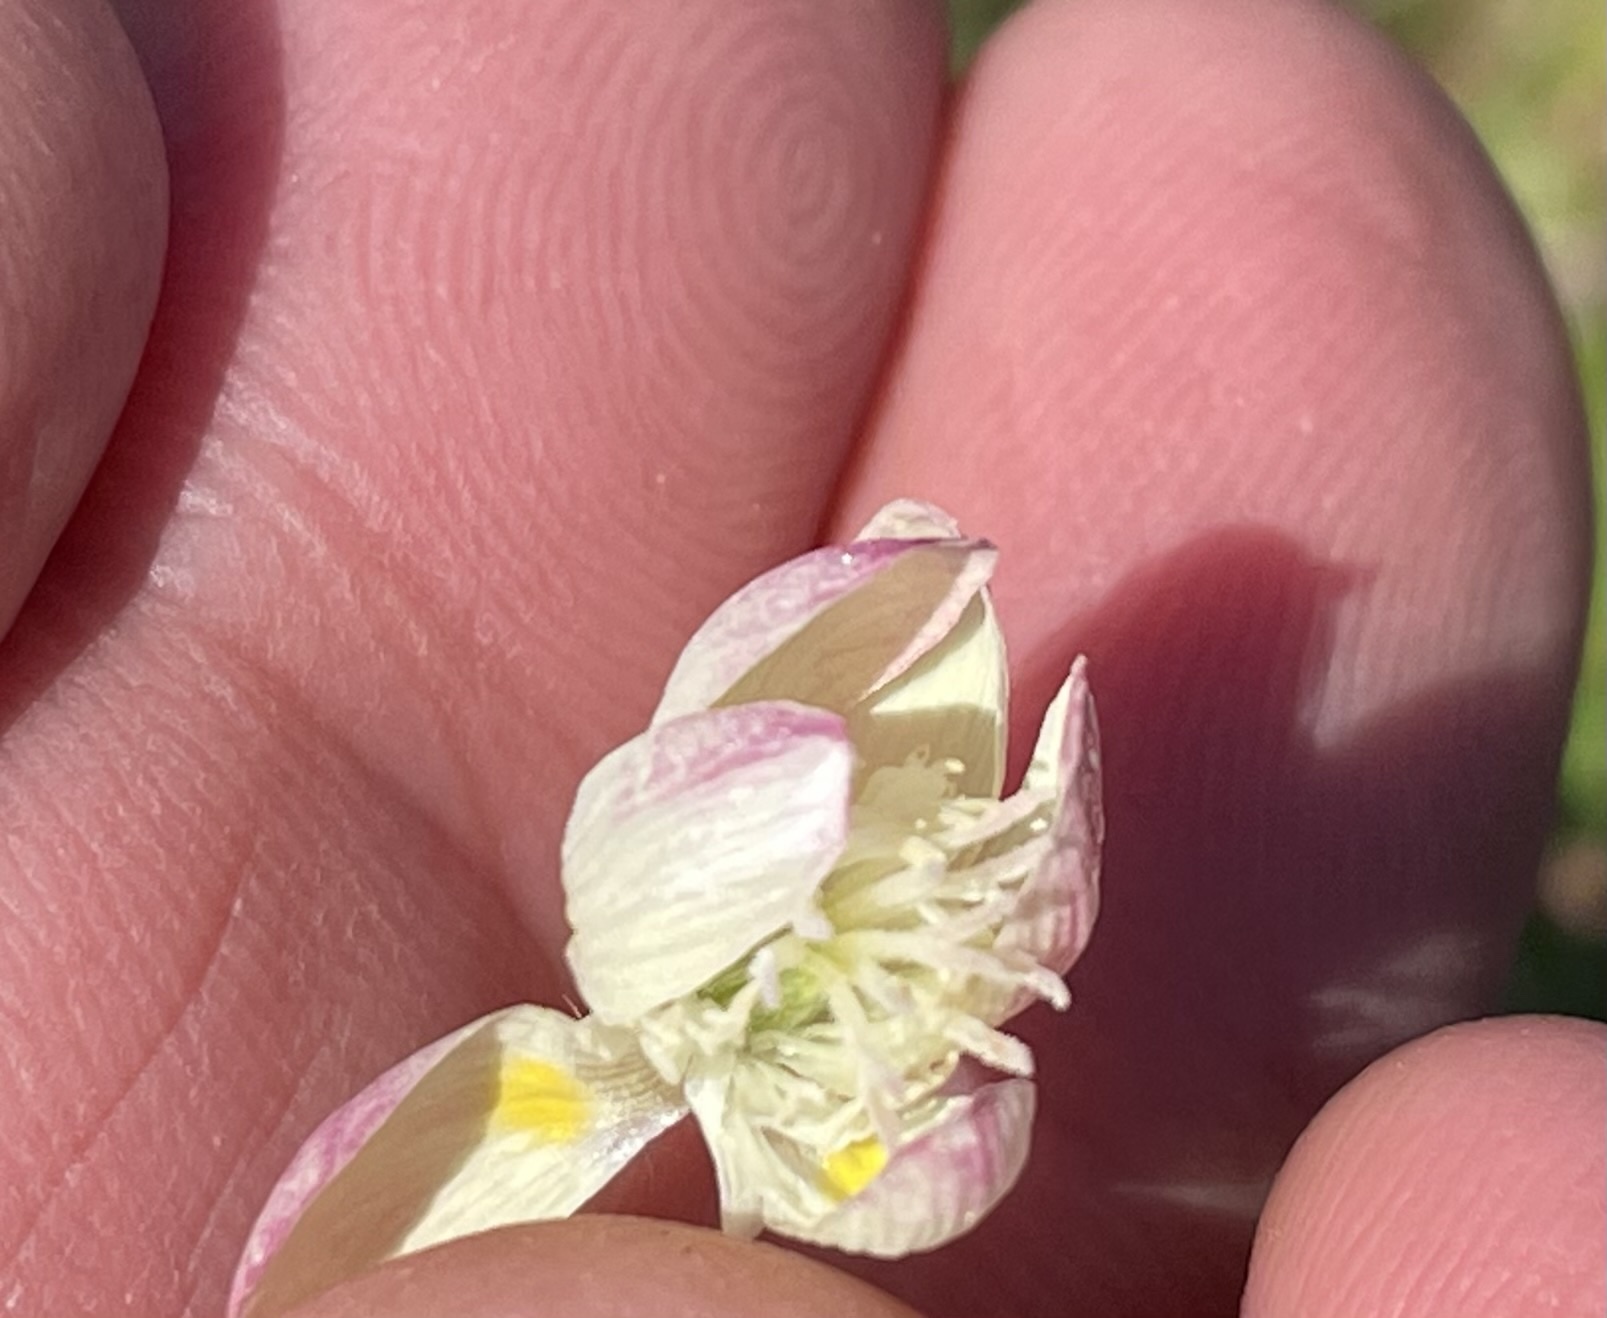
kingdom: Plantae
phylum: Tracheophyta
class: Magnoliopsida
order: Ranunculales
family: Papaveraceae
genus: Platystemon
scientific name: Platystemon californicus
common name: Cream-cups
